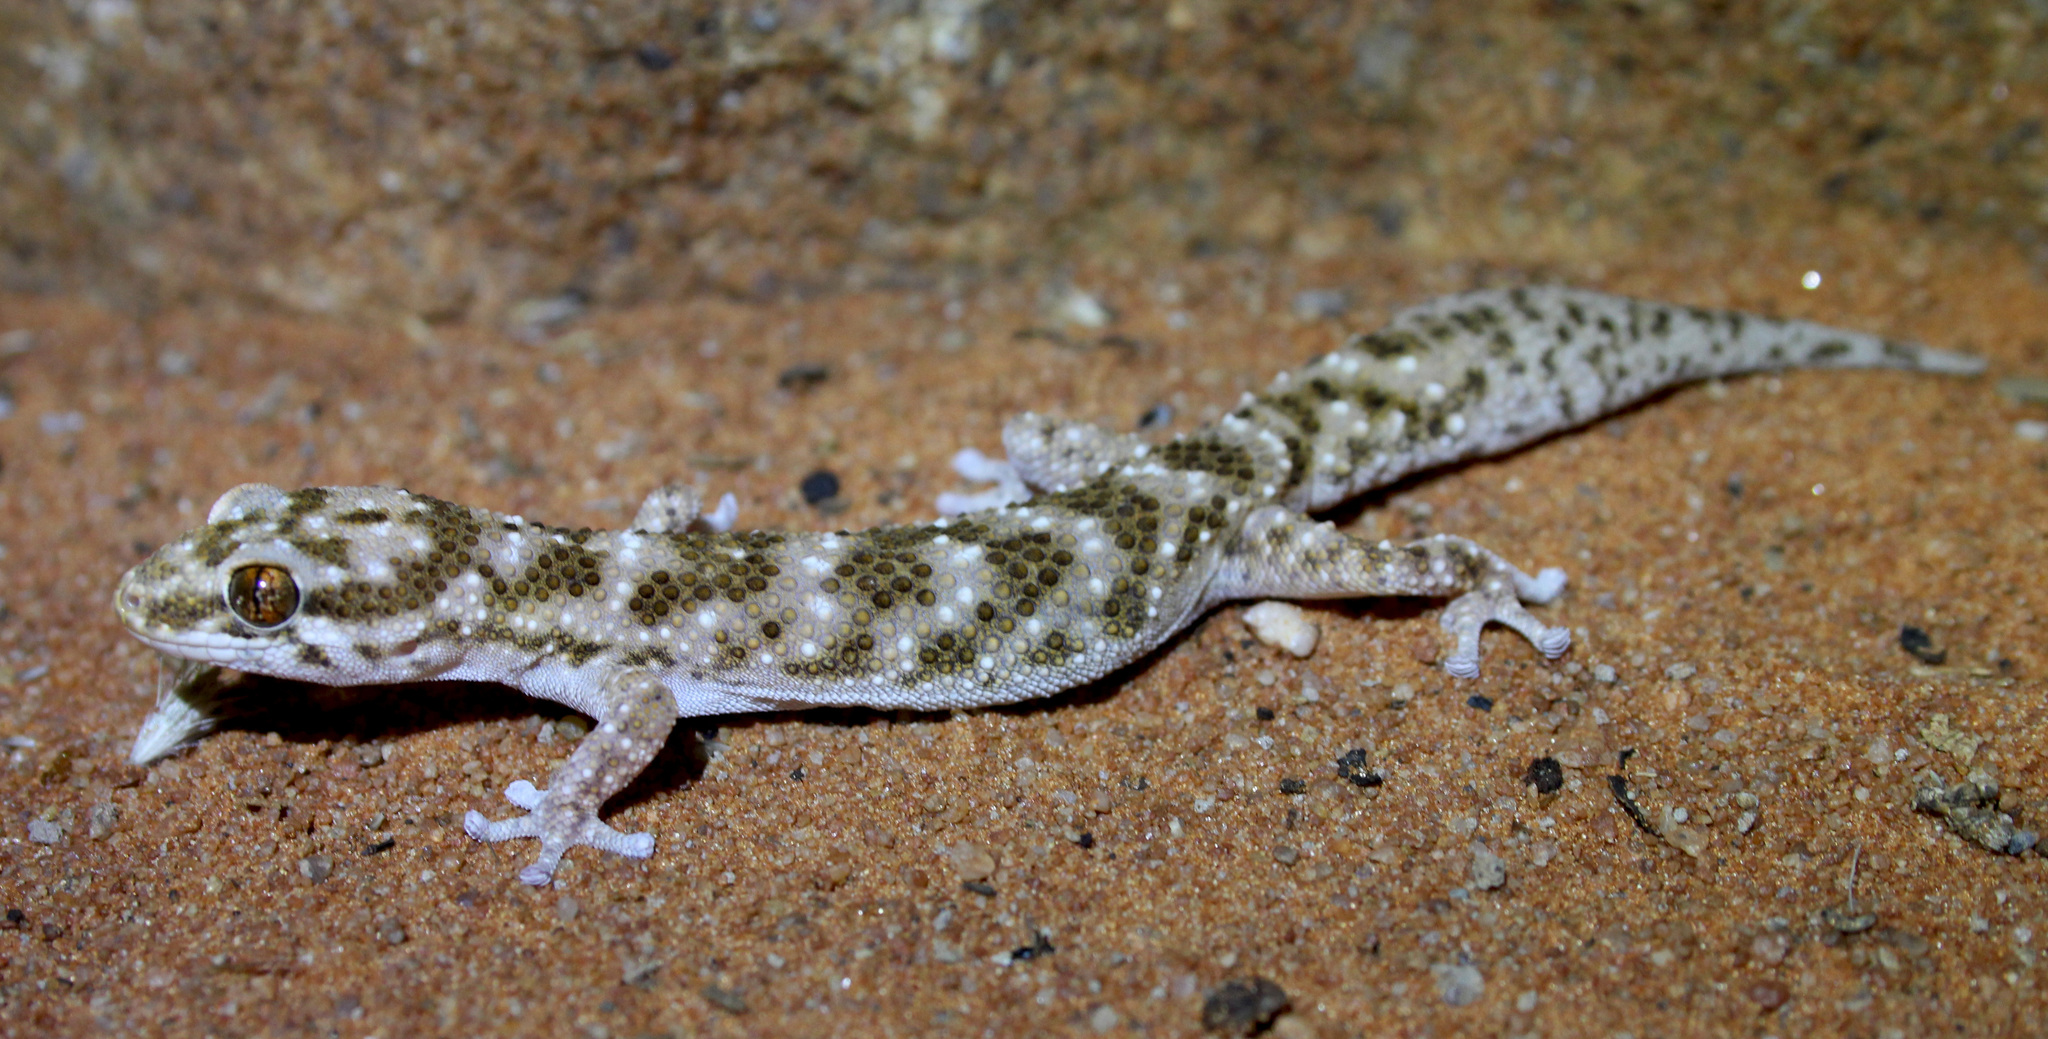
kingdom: Animalia
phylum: Chordata
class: Squamata
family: Gekkonidae
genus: Pachydactylus
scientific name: Pachydactylus capensis
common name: Cape gecko
